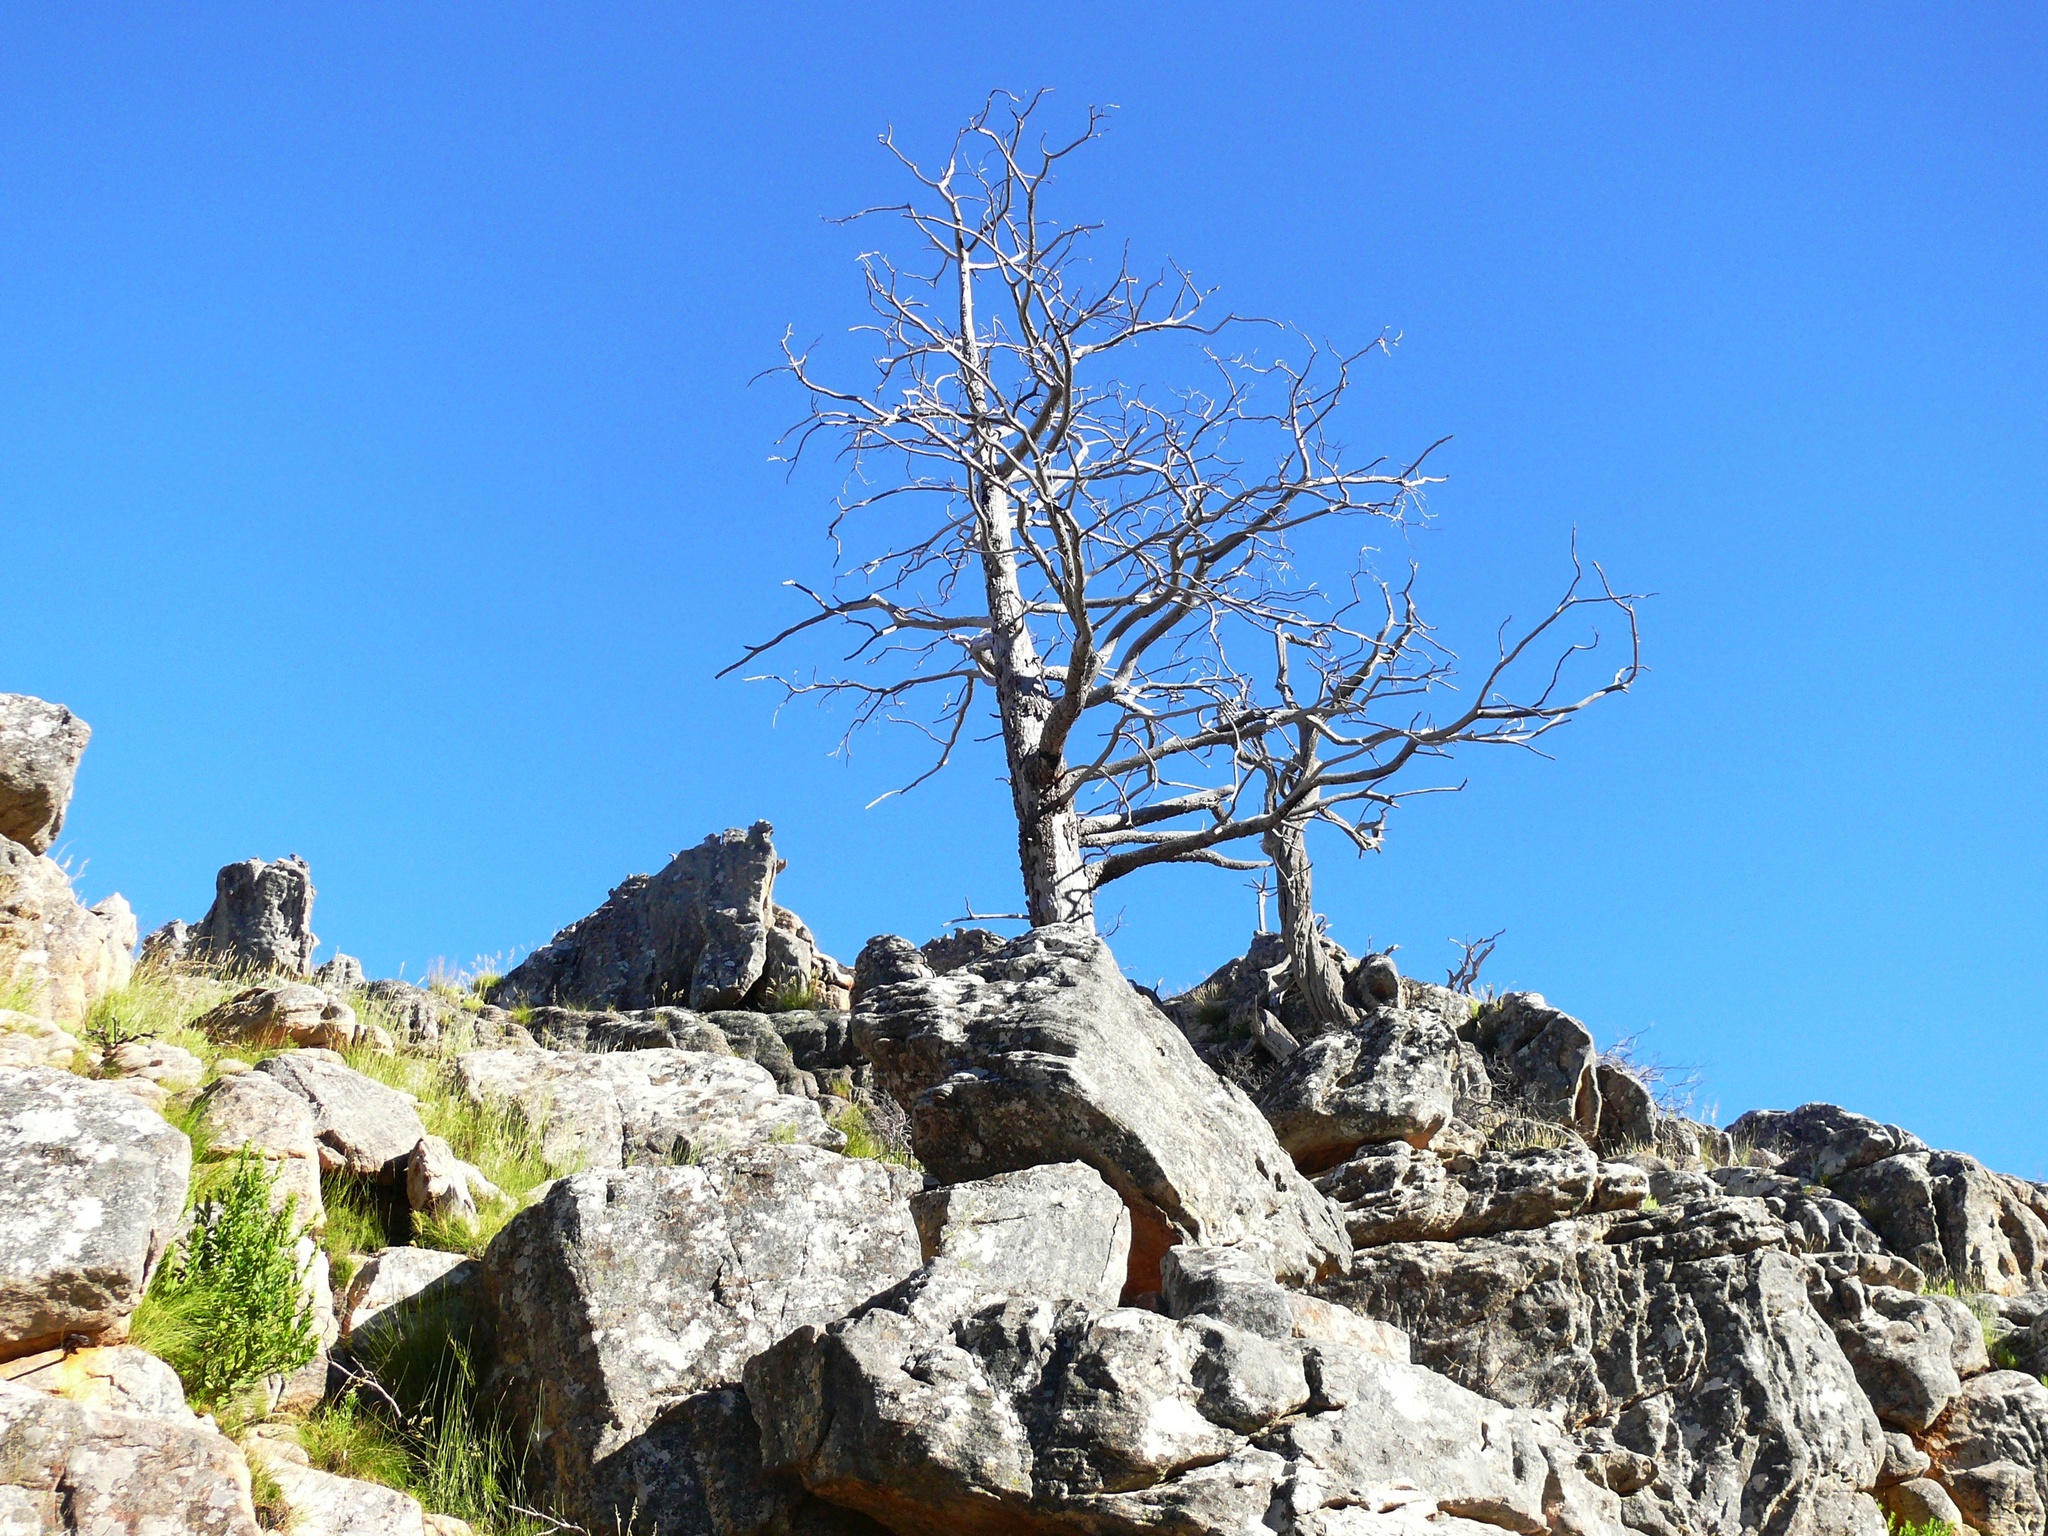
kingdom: Plantae
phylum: Tracheophyta
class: Pinopsida
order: Pinales
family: Cupressaceae
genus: Widdringtonia
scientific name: Widdringtonia nodiflora
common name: Cape cypress
